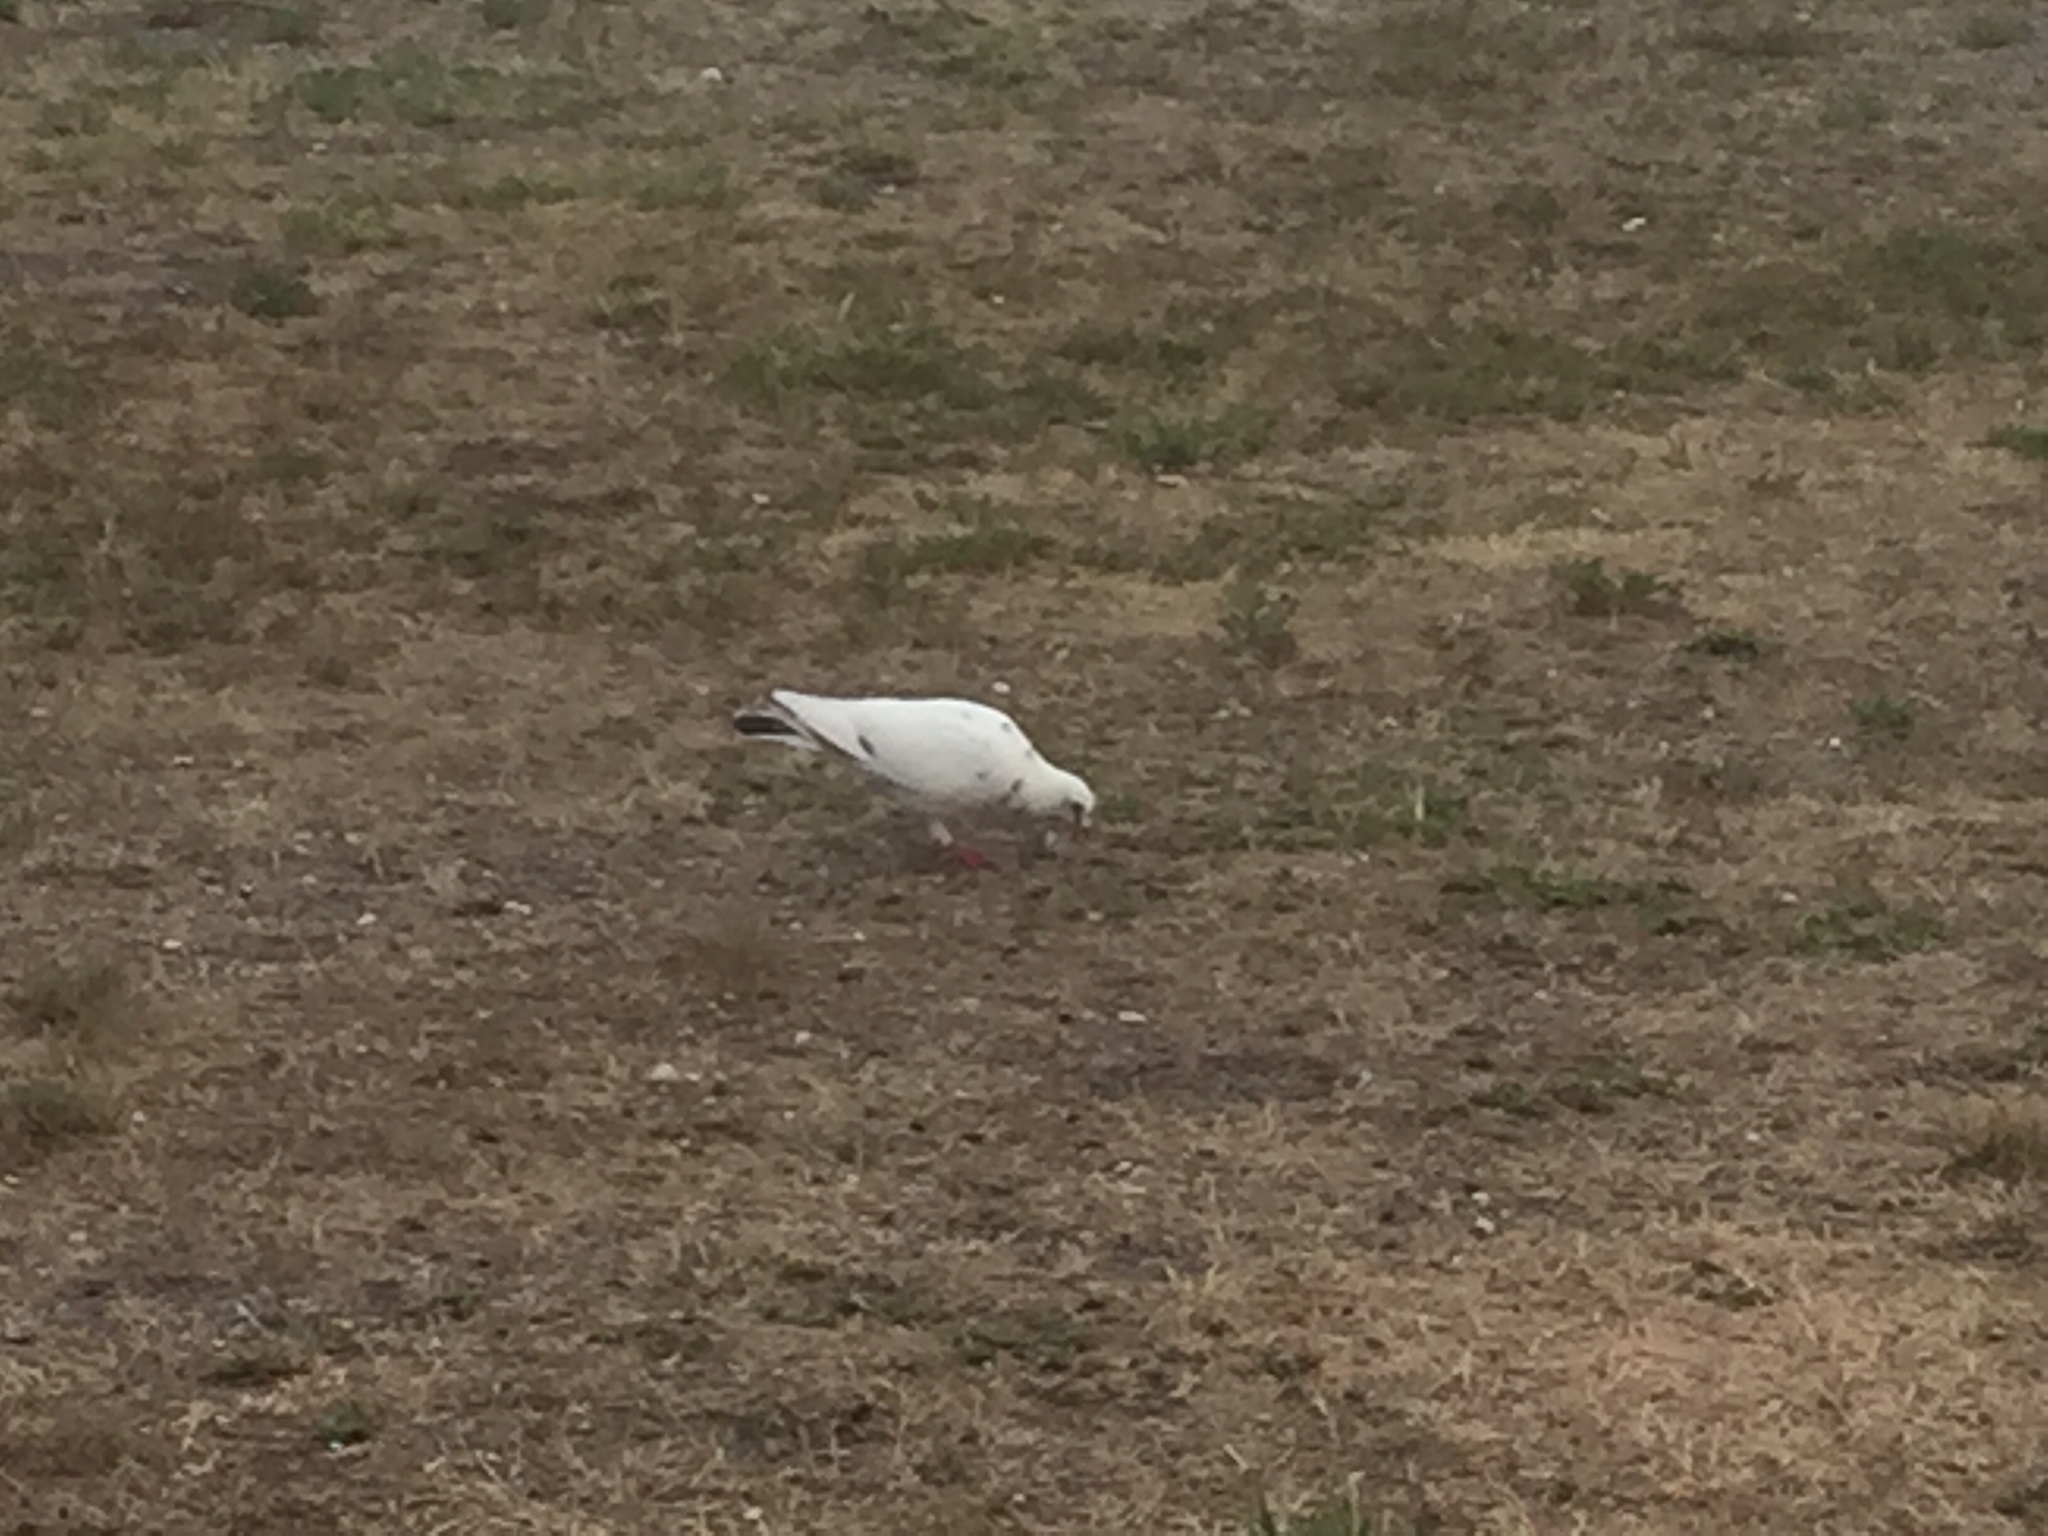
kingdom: Animalia
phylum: Chordata
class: Aves
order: Columbiformes
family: Columbidae
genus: Columba
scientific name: Columba livia
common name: Rock pigeon
